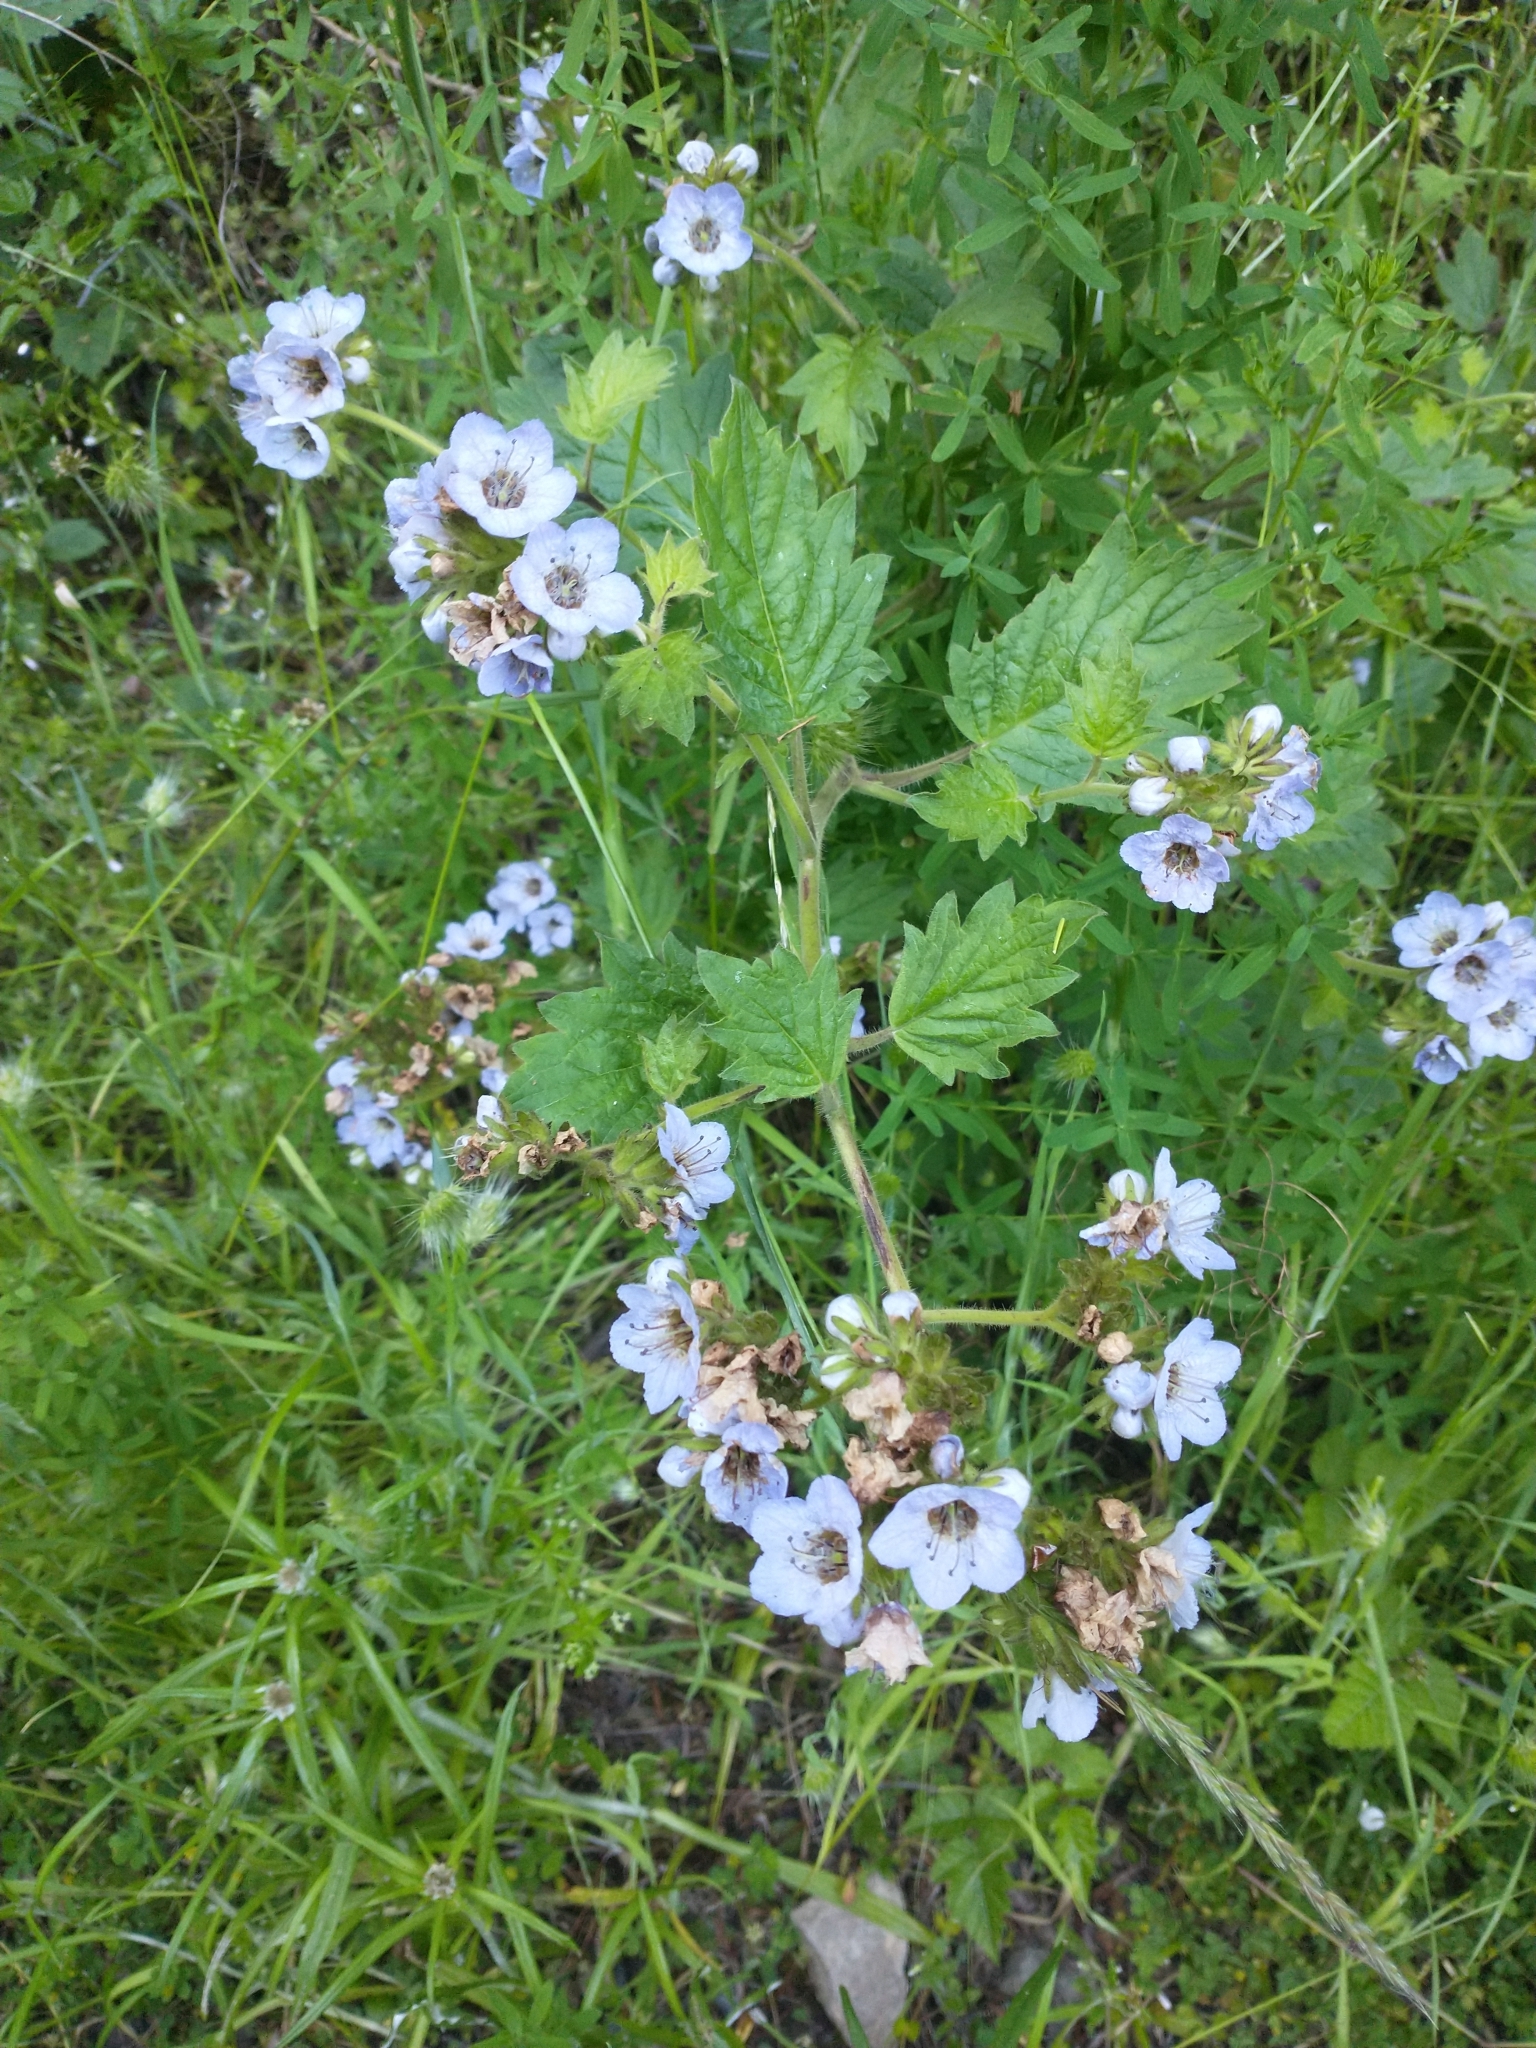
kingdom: Plantae
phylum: Tracheophyta
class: Magnoliopsida
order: Boraginales
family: Hydrophyllaceae
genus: Phacelia
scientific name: Phacelia bolanderi
